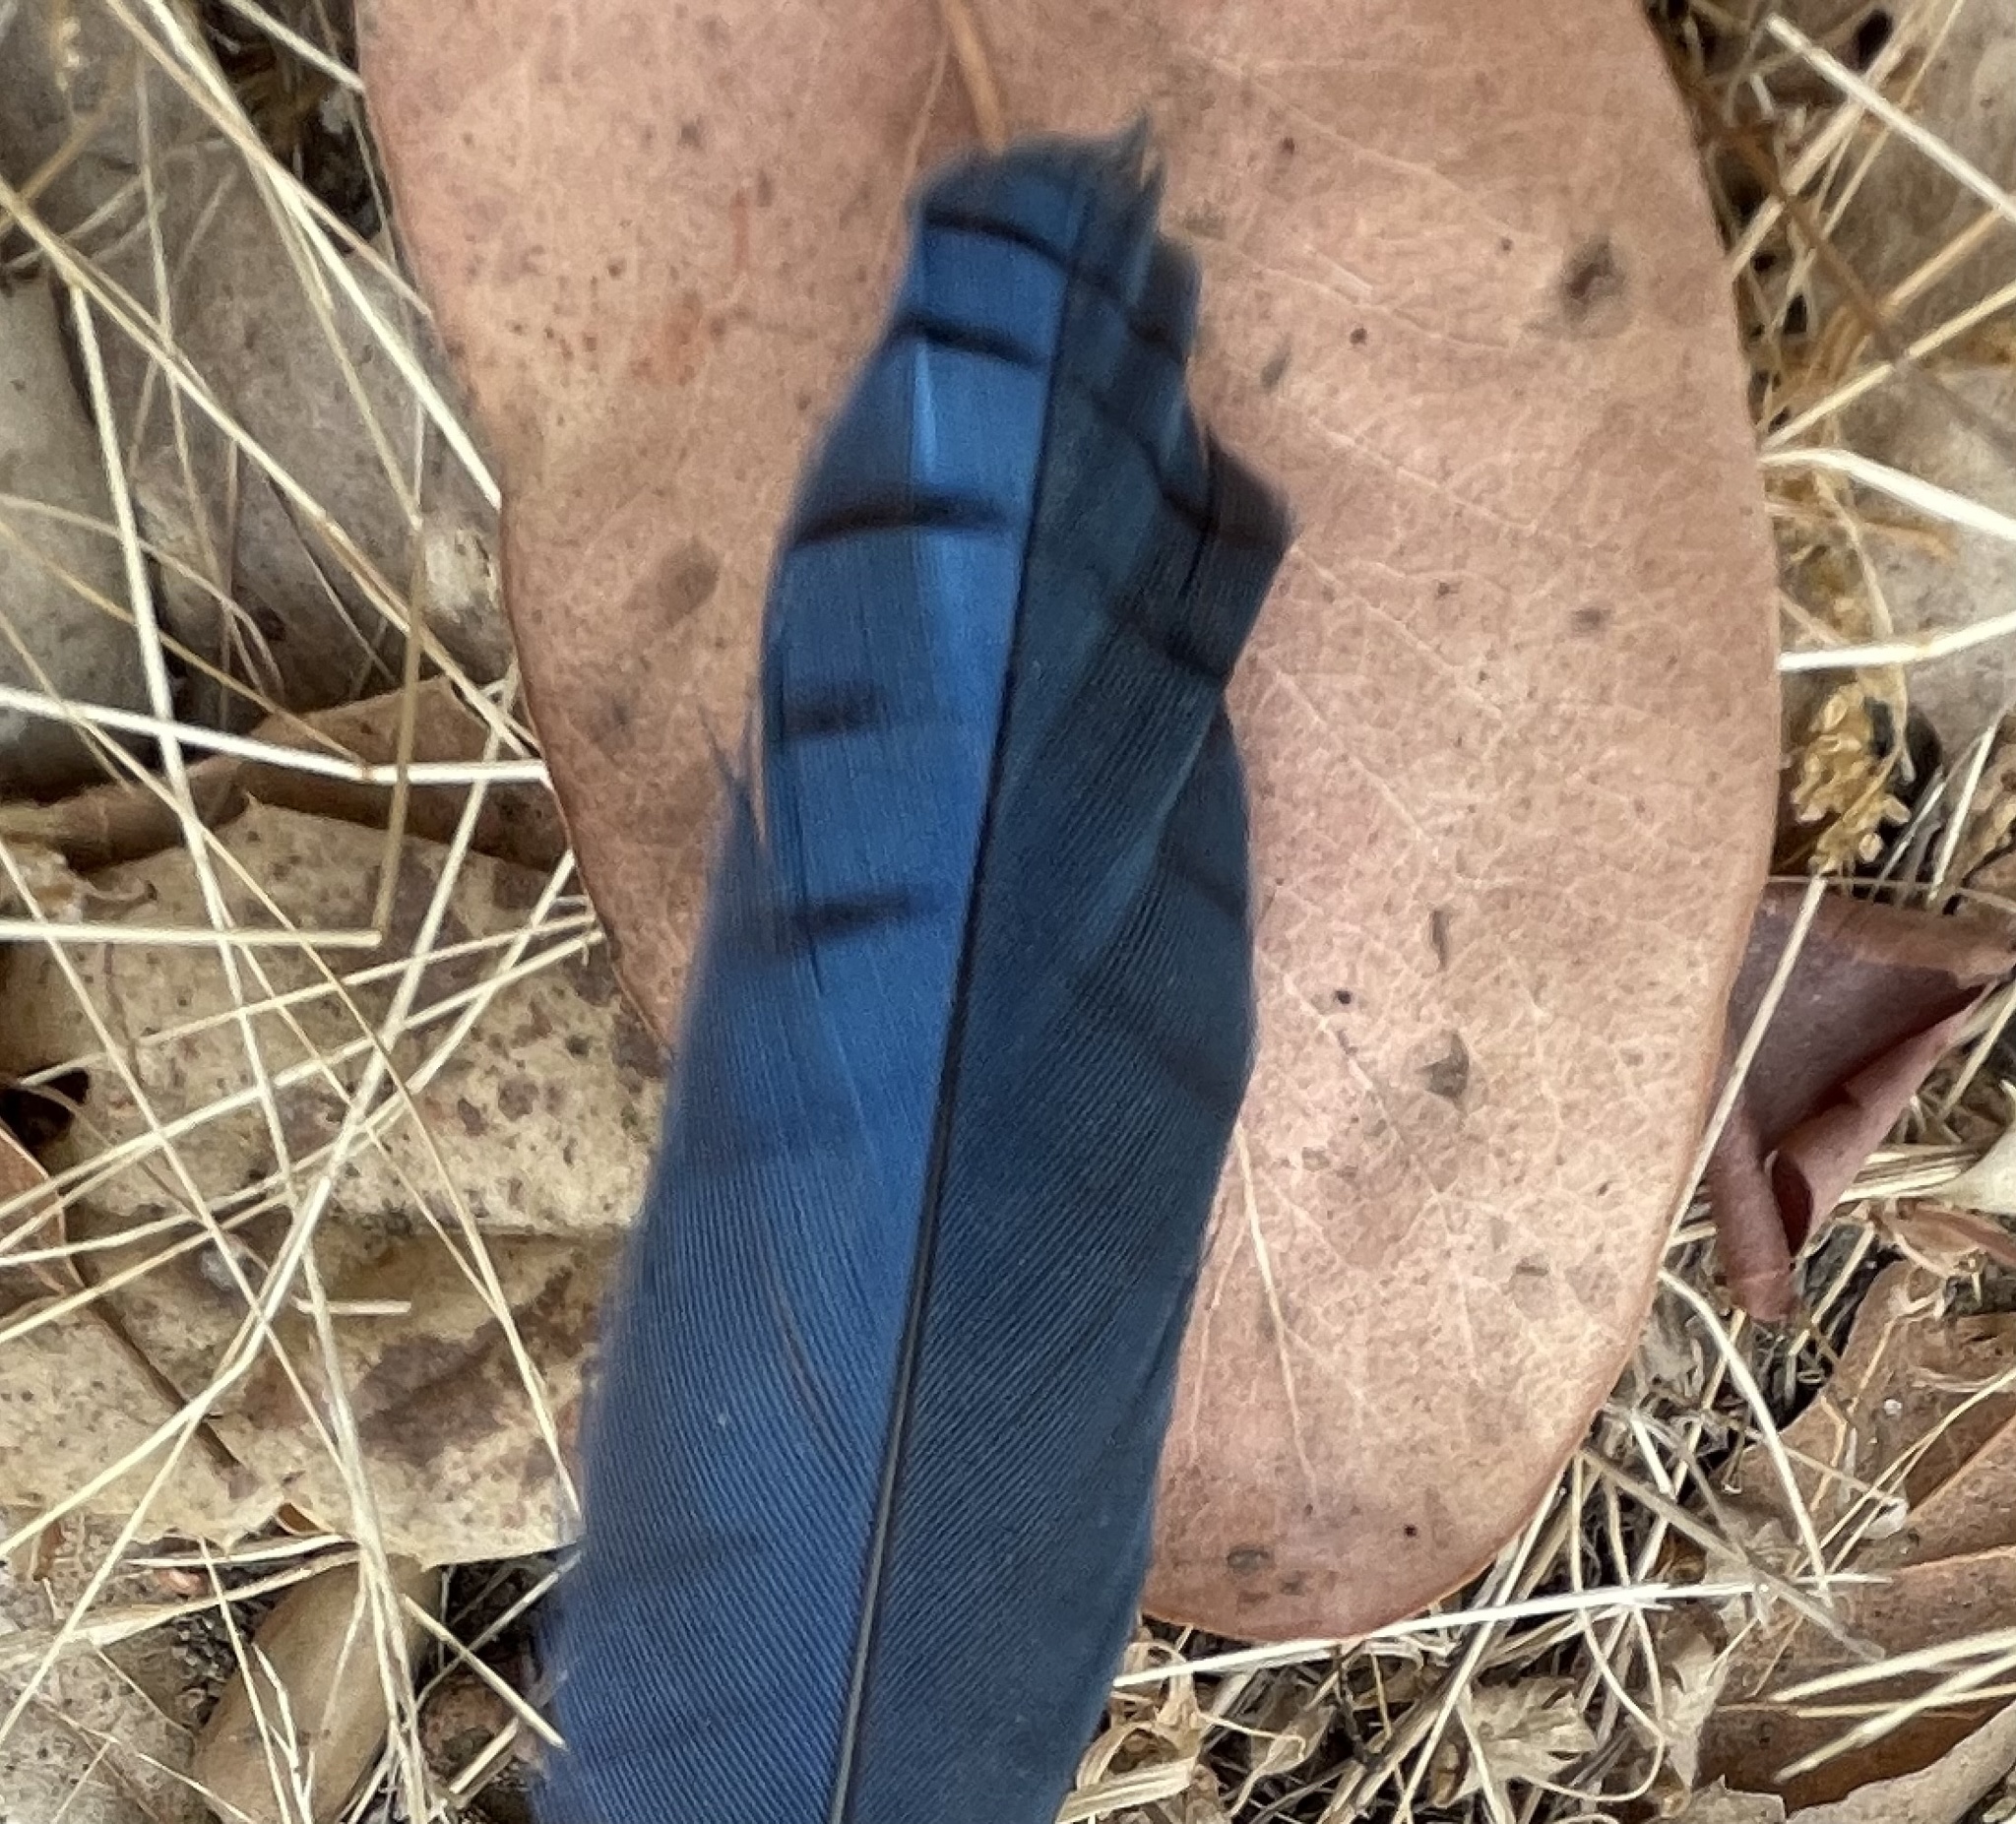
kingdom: Animalia
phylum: Chordata
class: Aves
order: Passeriformes
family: Corvidae
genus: Cyanocitta
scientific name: Cyanocitta stelleri
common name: Steller's jay
